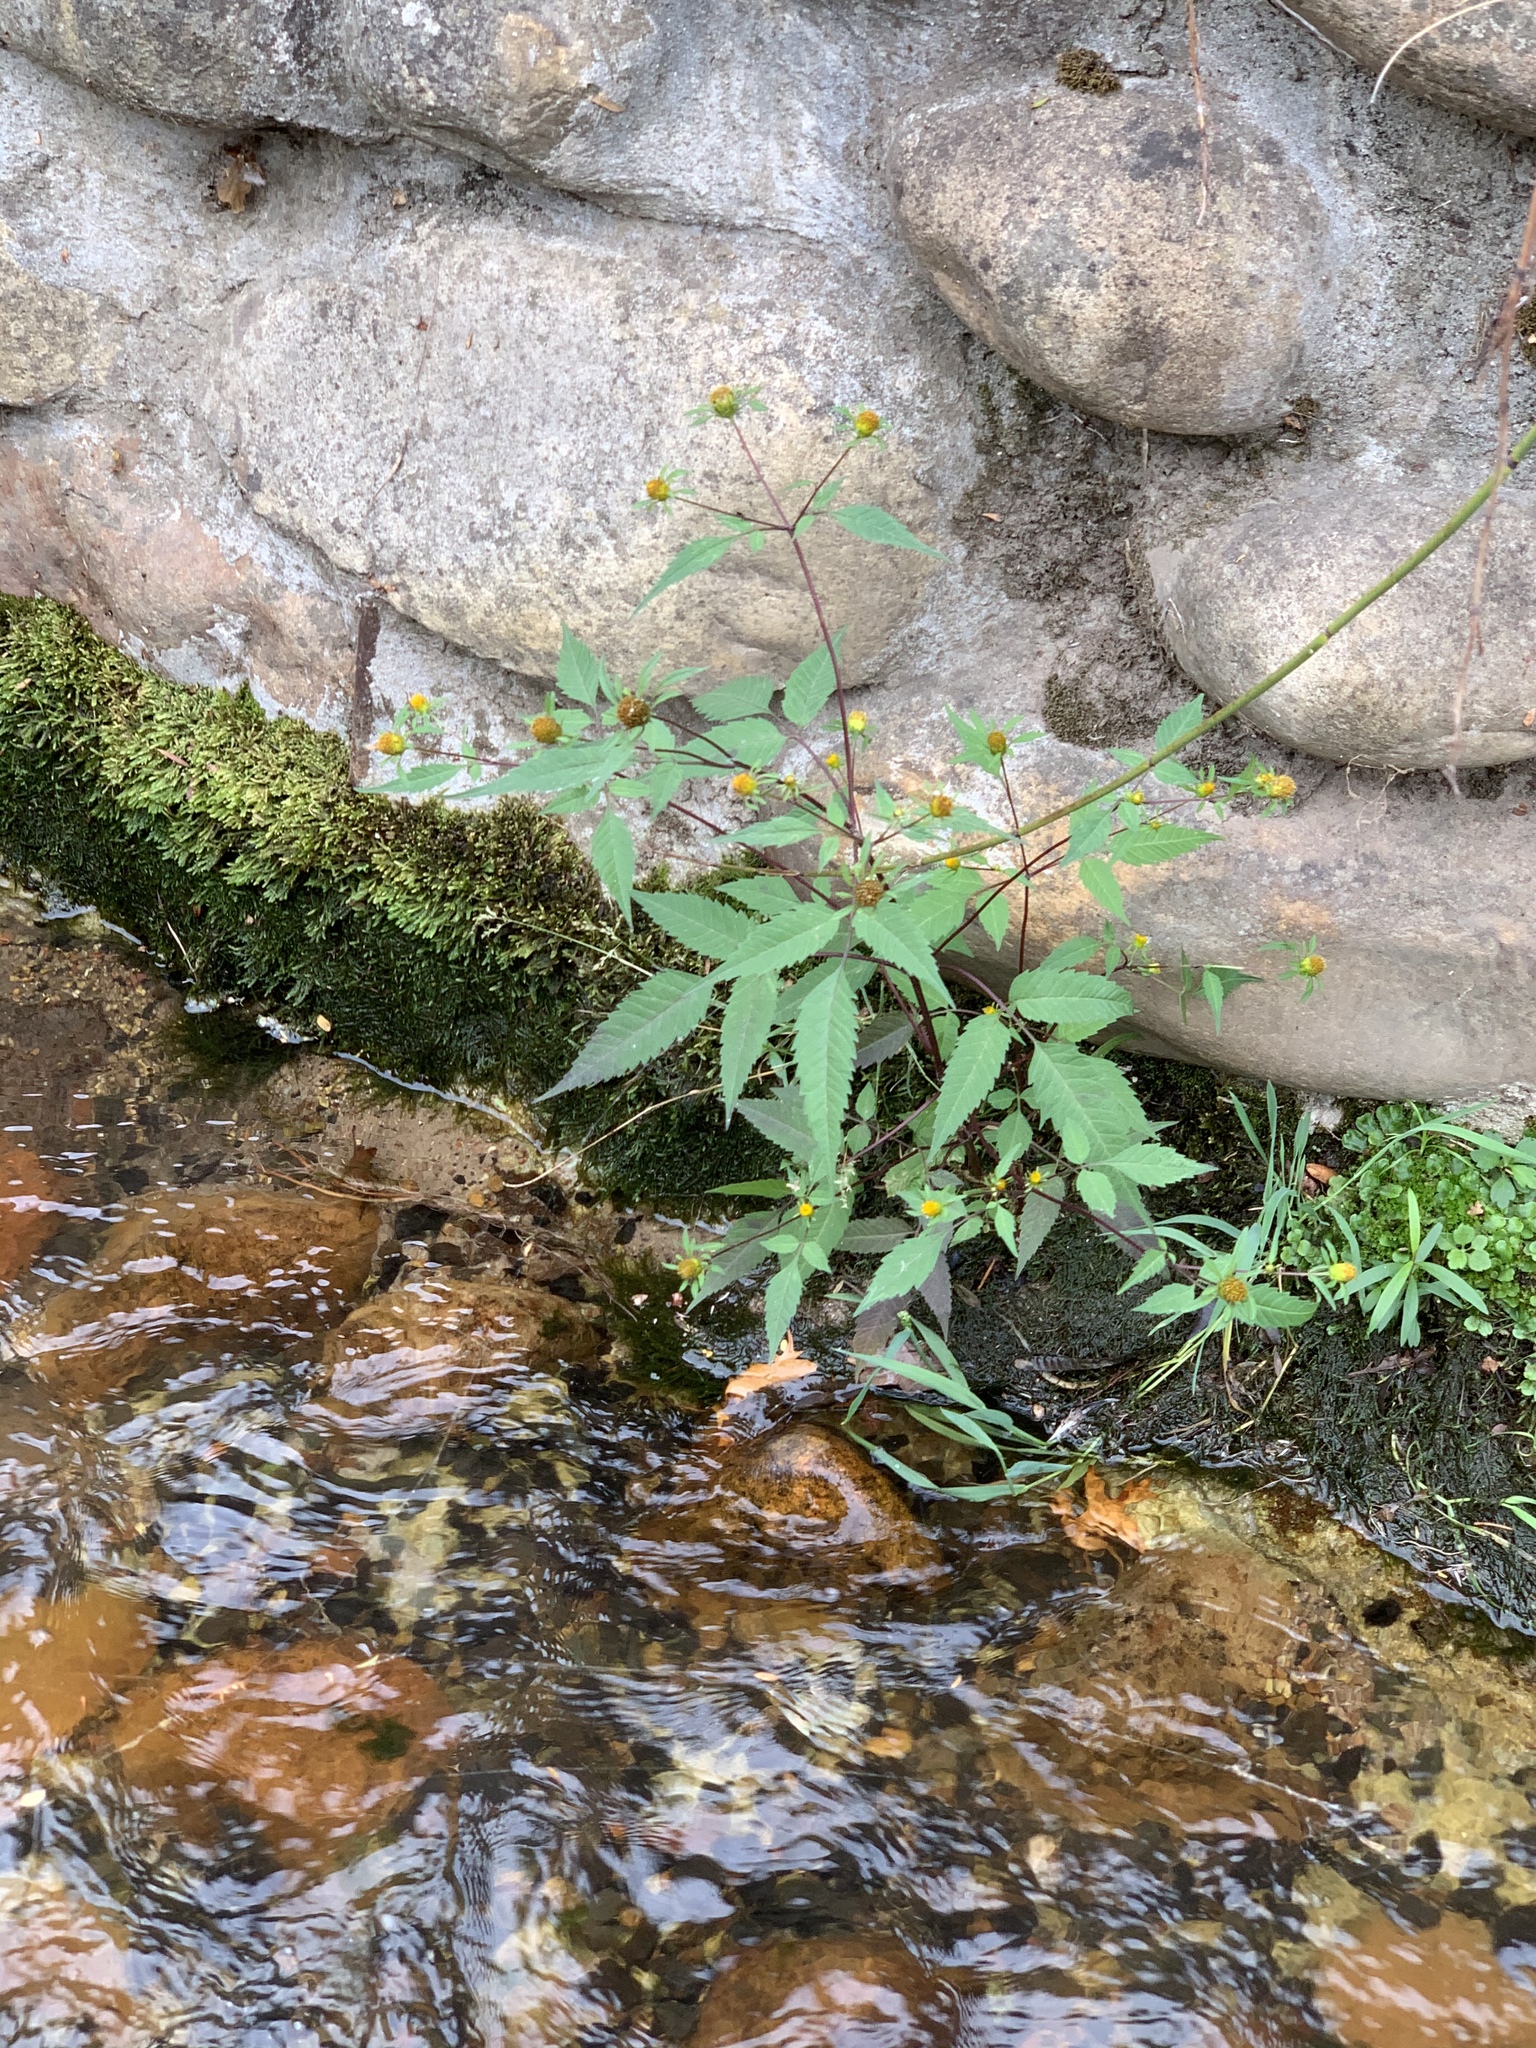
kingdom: Plantae
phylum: Tracheophyta
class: Magnoliopsida
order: Asterales
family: Asteraceae
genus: Bidens
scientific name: Bidens frondosa
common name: Beggarticks
